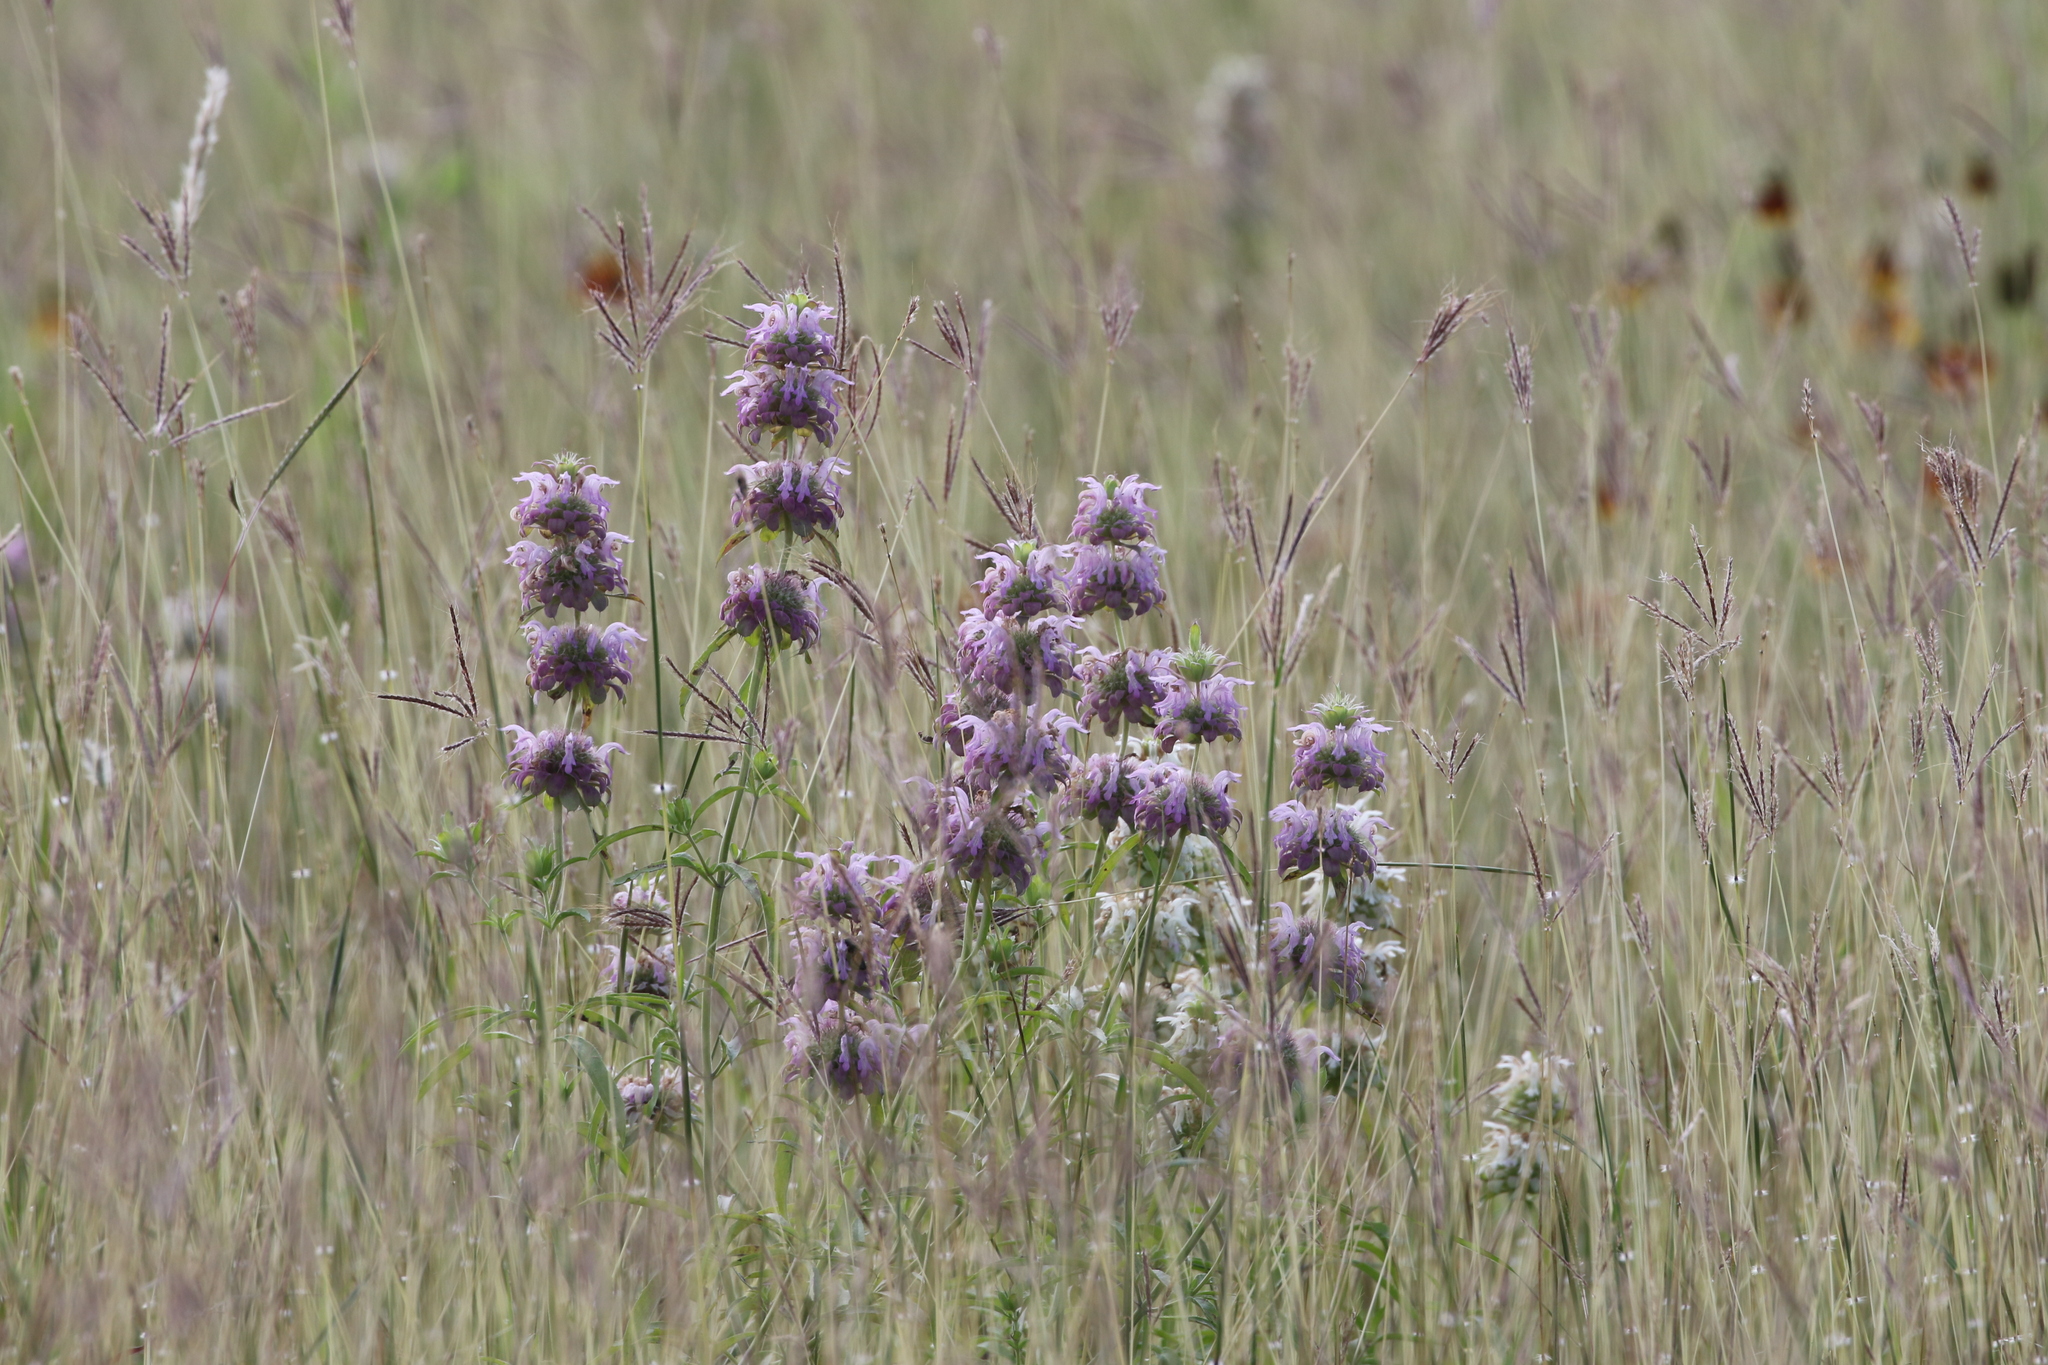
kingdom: Plantae
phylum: Tracheophyta
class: Magnoliopsida
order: Lamiales
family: Lamiaceae
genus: Monarda
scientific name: Monarda citriodora
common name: Lemon beebalm
